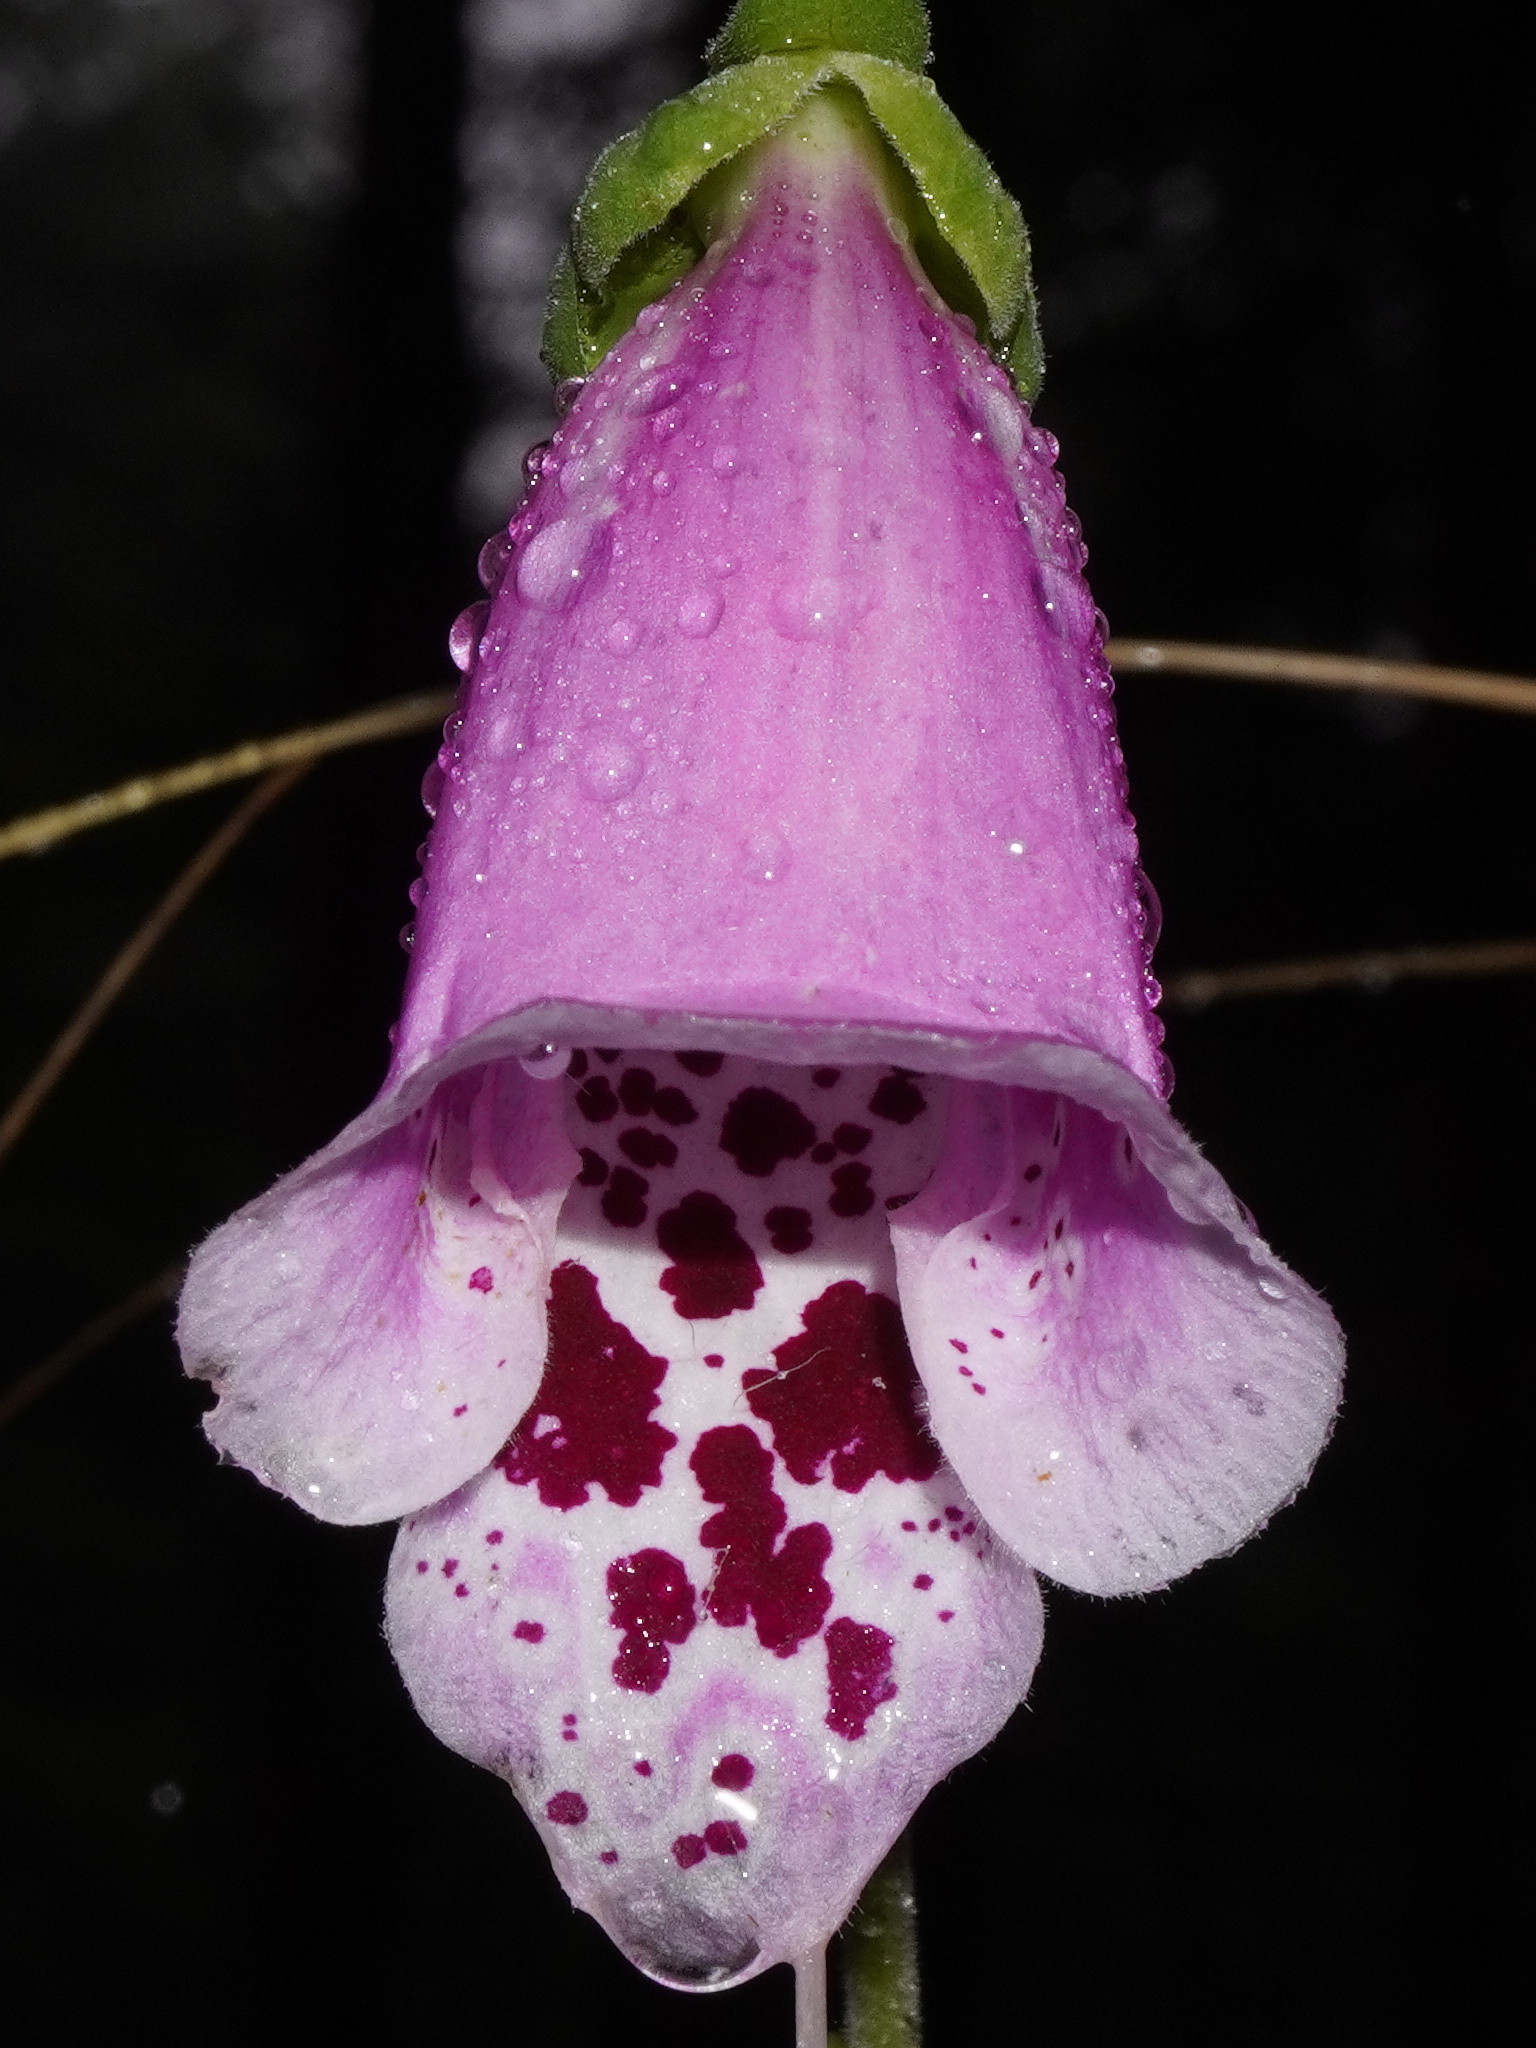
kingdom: Plantae
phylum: Tracheophyta
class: Magnoliopsida
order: Lamiales
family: Plantaginaceae
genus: Digitalis
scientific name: Digitalis purpurea
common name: Foxglove
